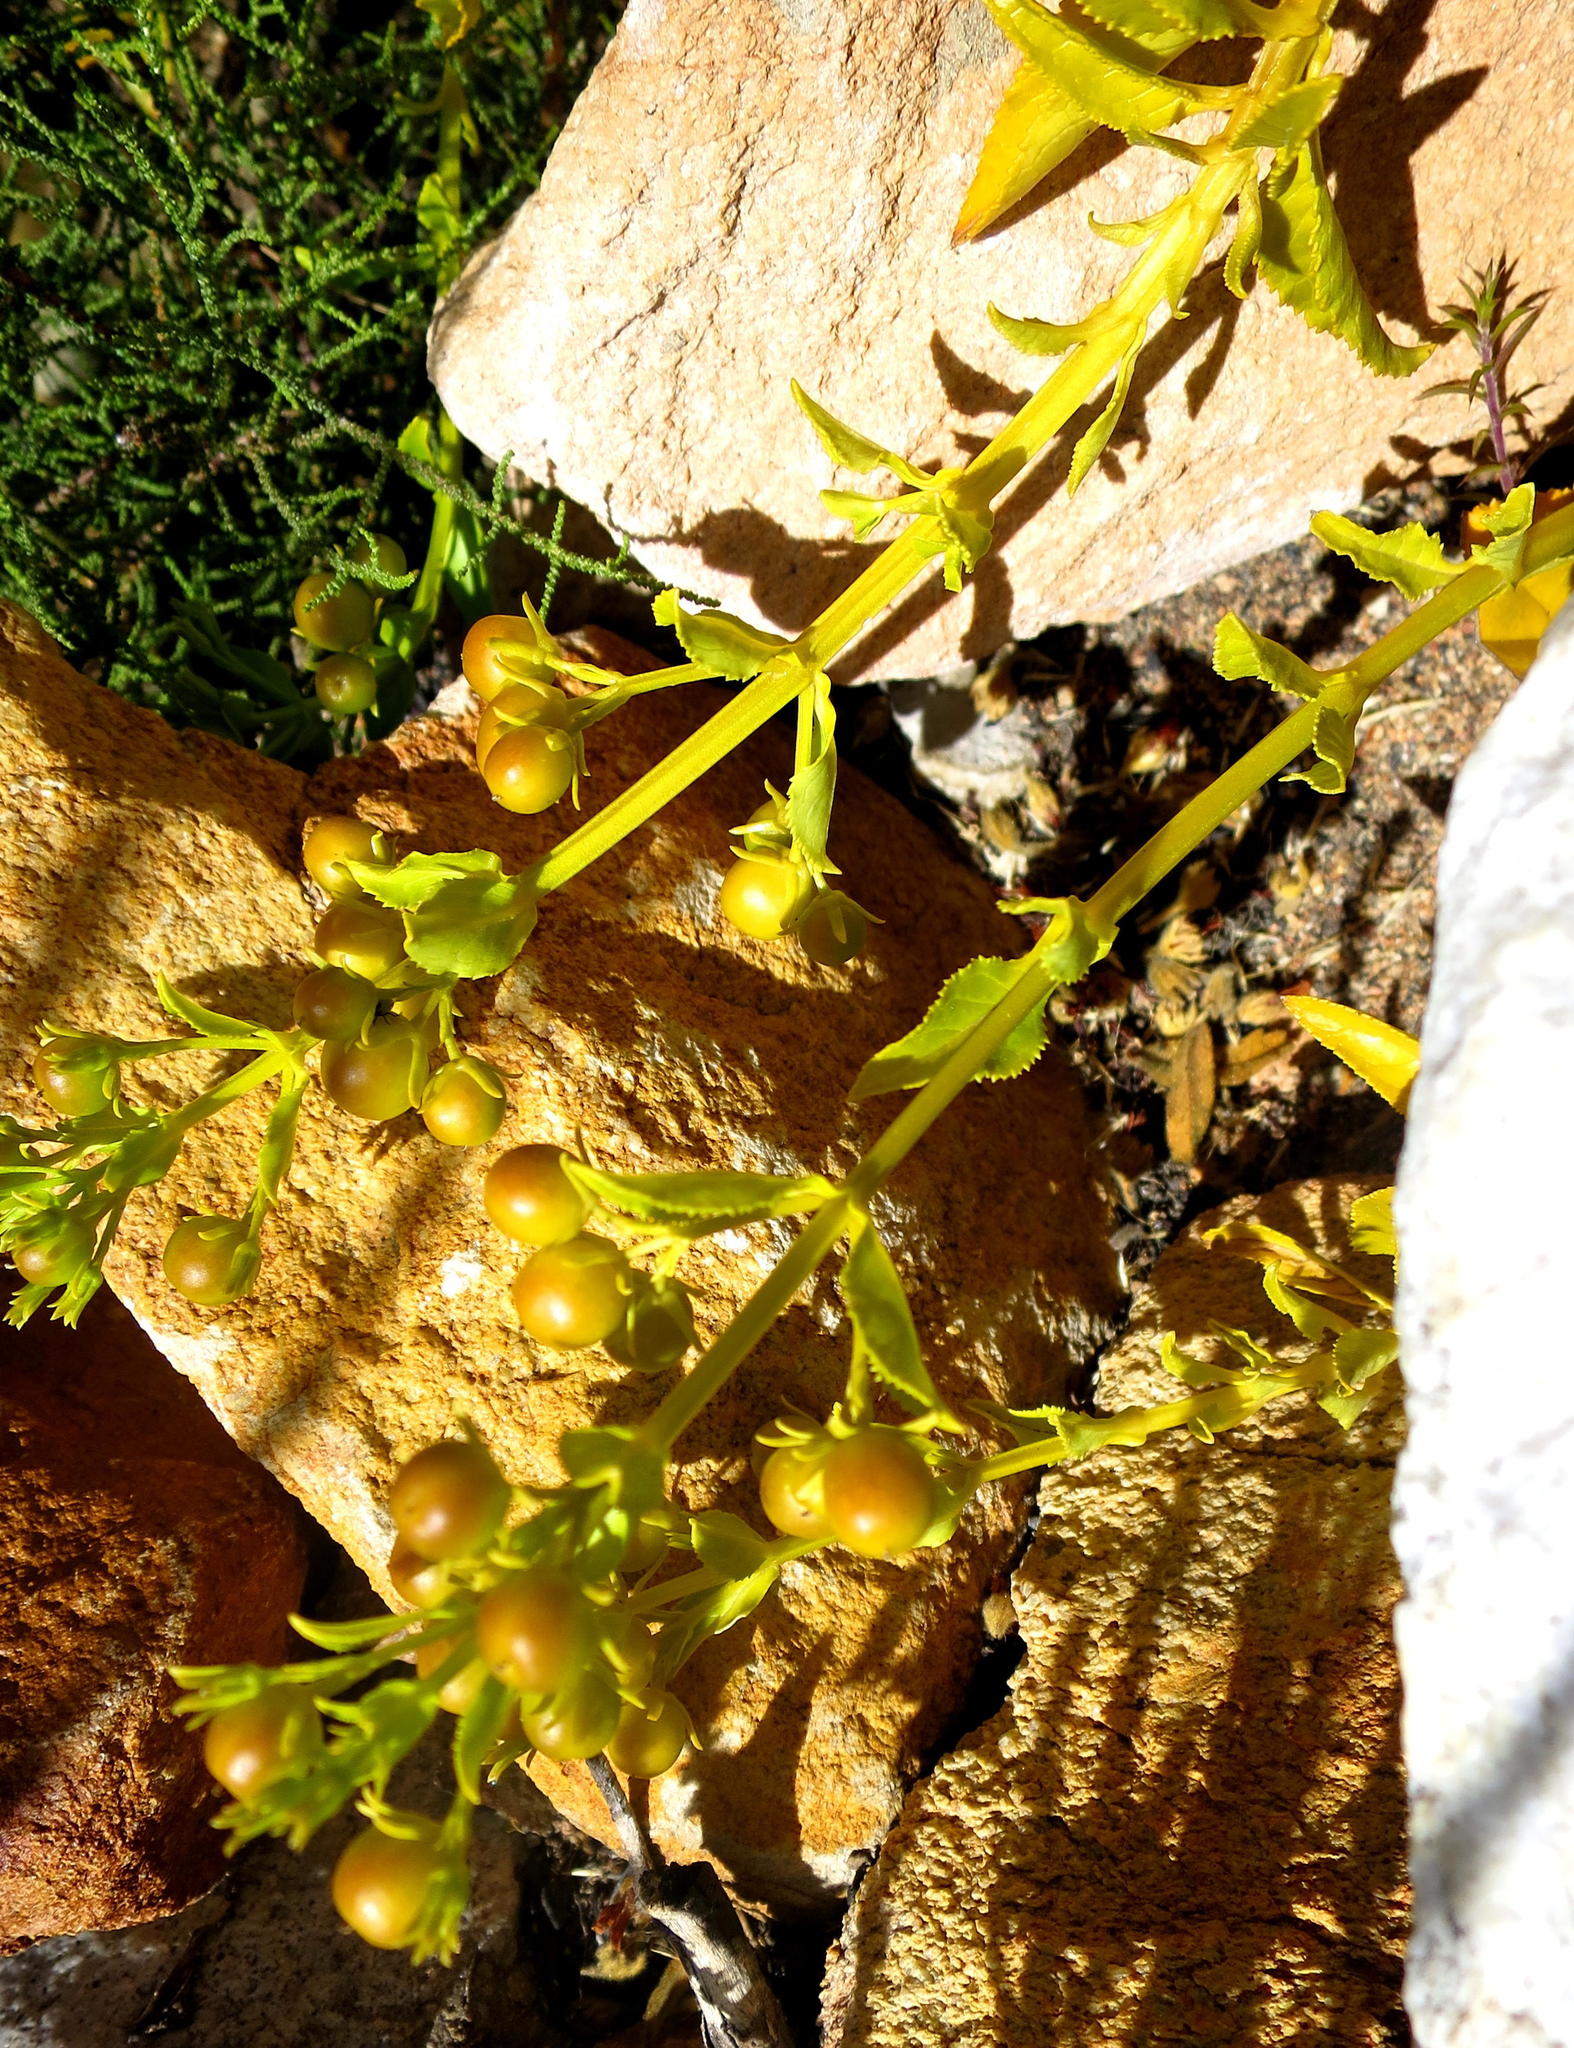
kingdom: Plantae
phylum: Tracheophyta
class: Magnoliopsida
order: Lamiales
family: Scrophulariaceae
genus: Teedia
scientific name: Teedia lucida
